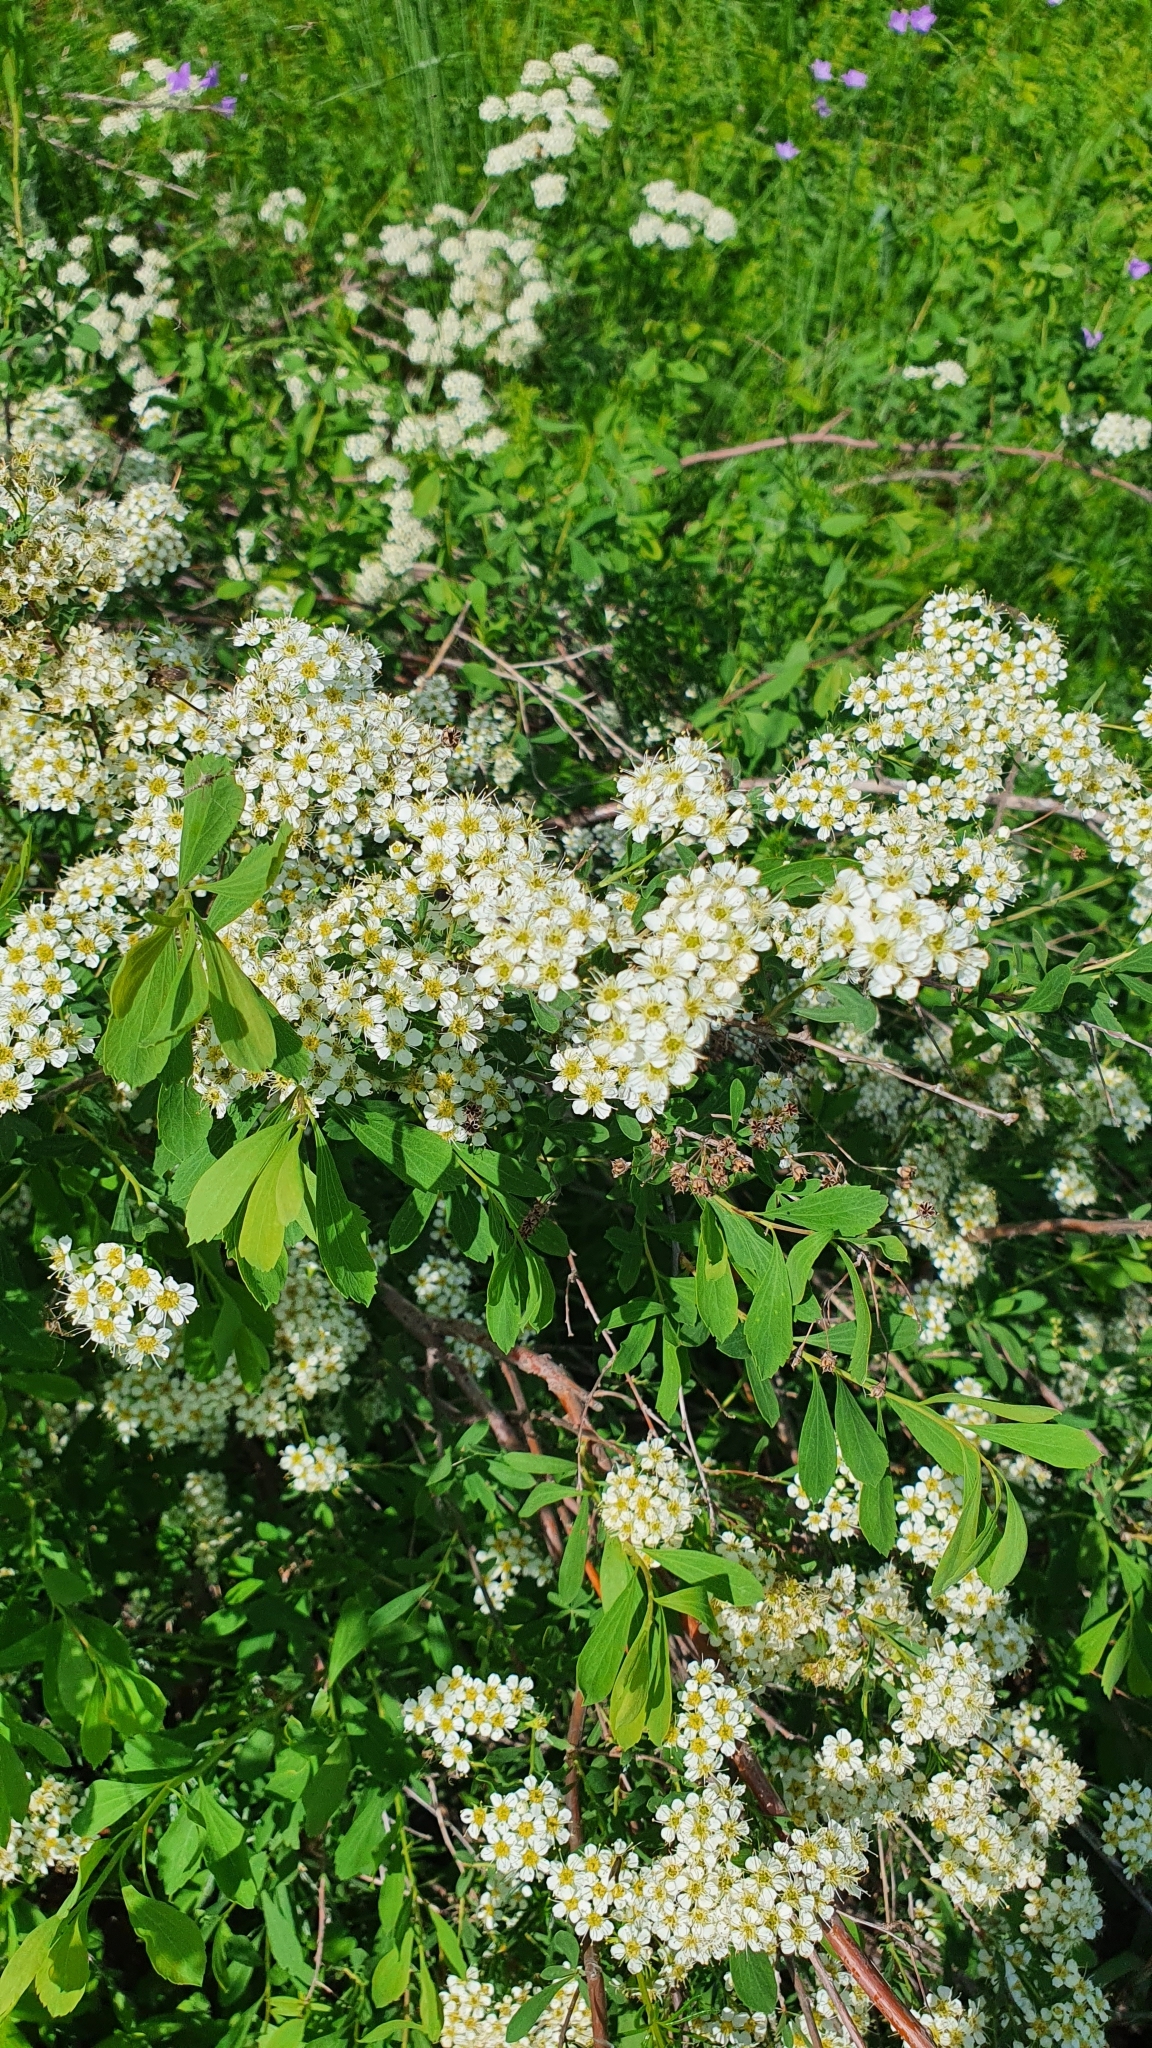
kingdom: Plantae
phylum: Tracheophyta
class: Magnoliopsida
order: Rosales
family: Rosaceae
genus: Spiraea
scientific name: Spiraea crenata
